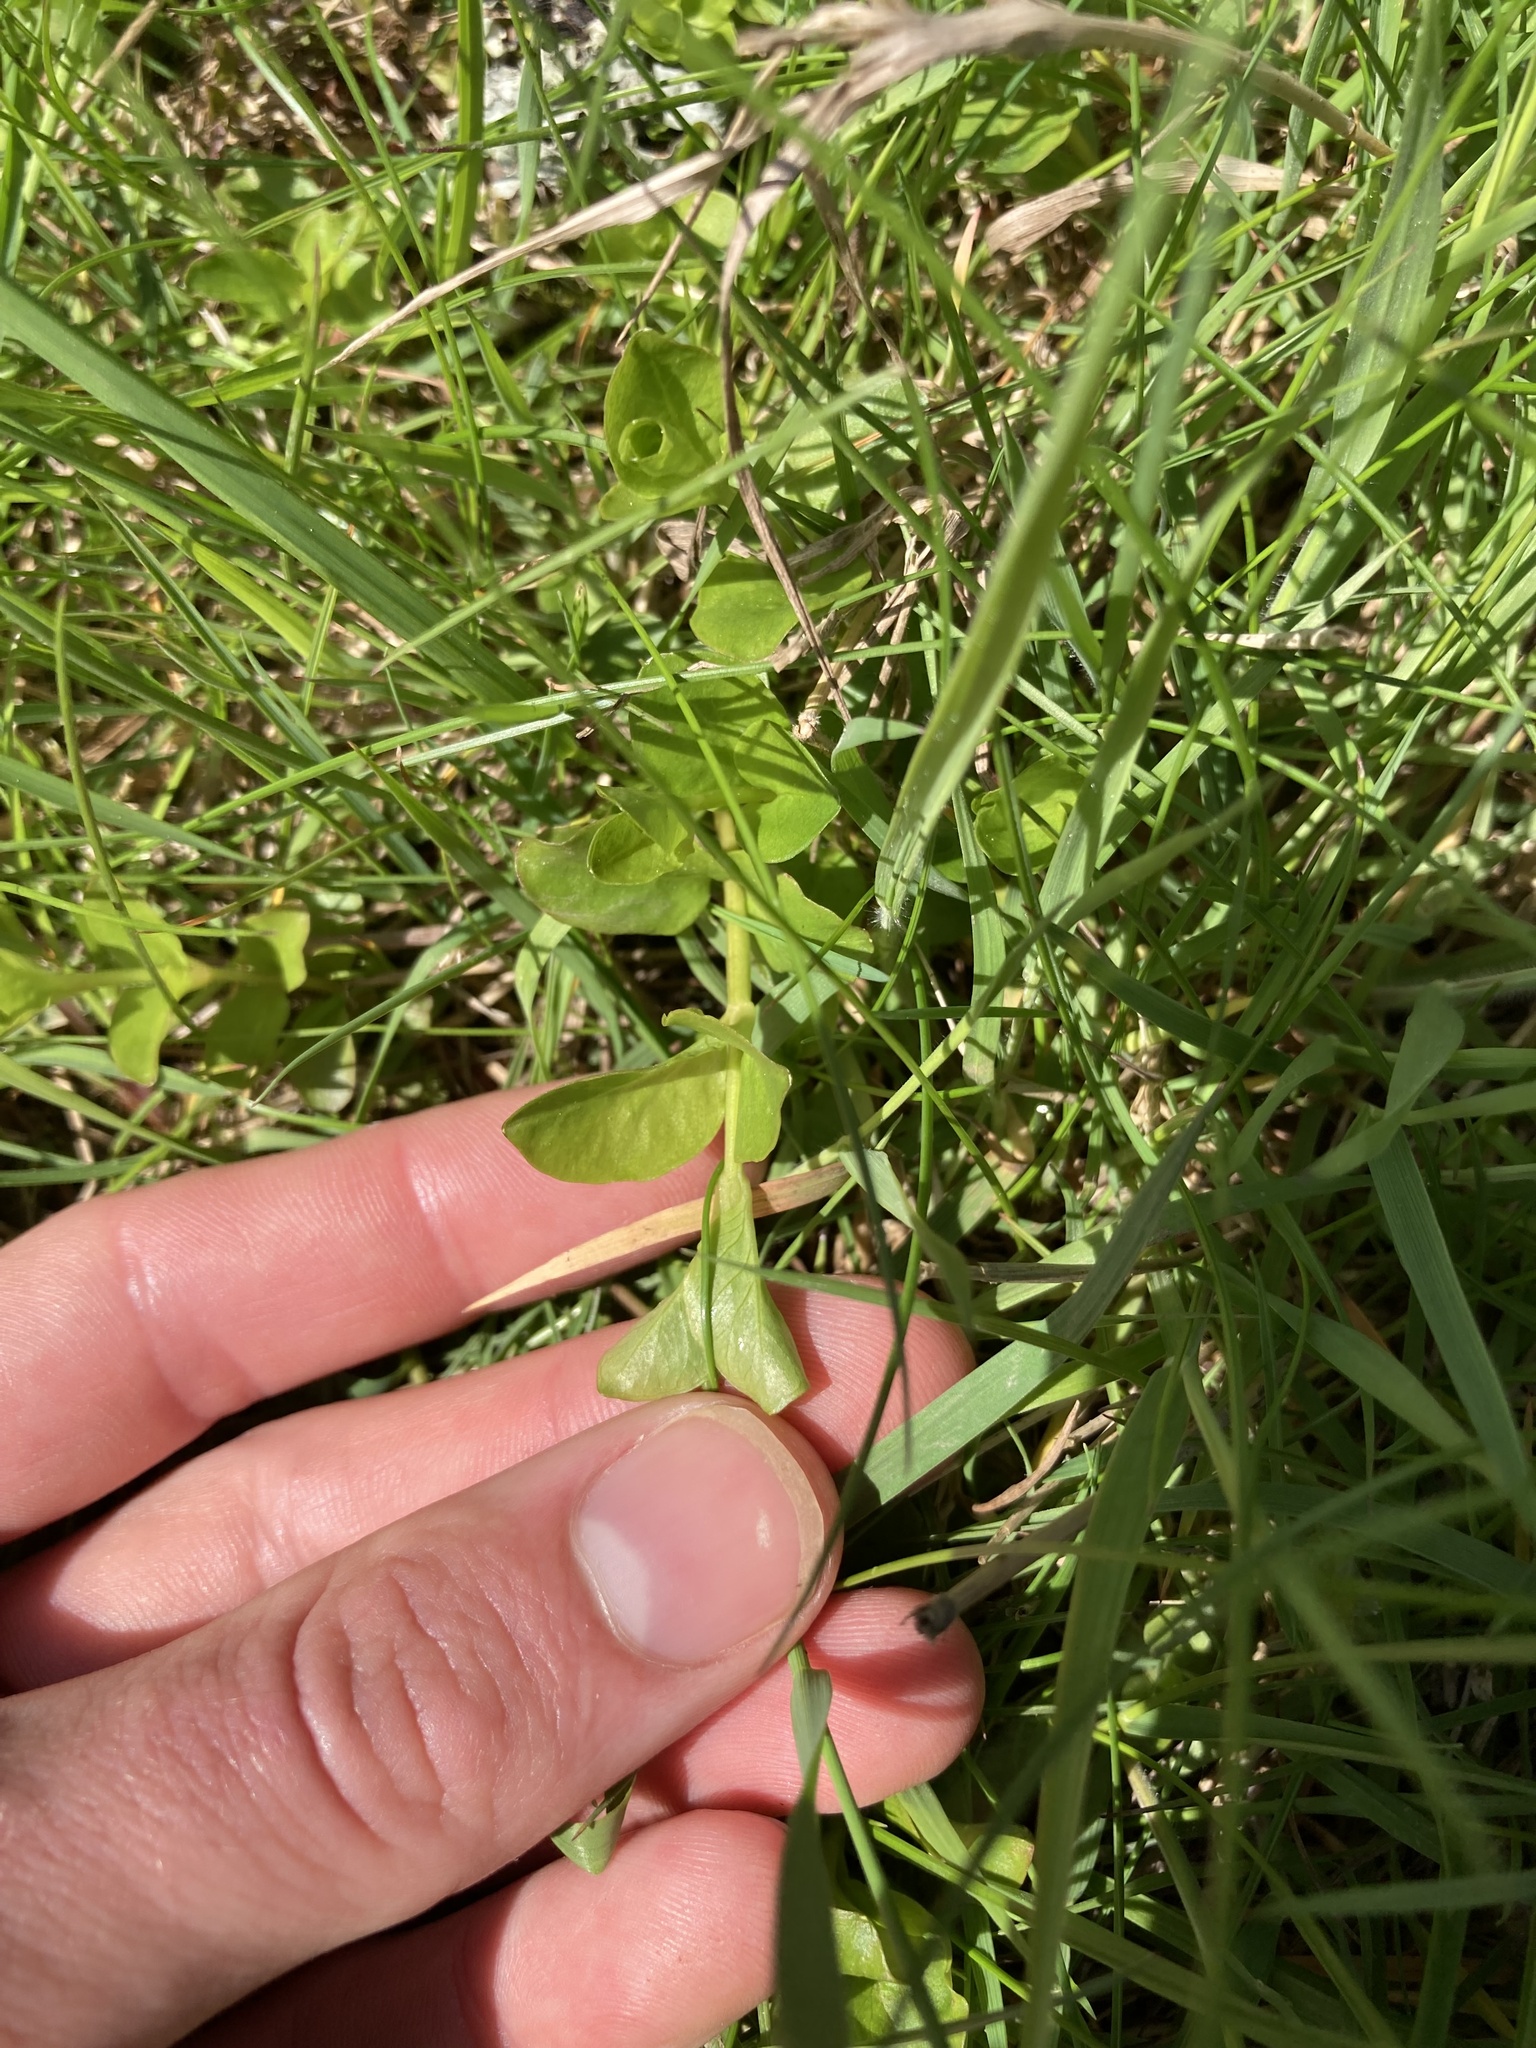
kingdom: Plantae
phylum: Tracheophyta
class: Magnoliopsida
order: Ericales
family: Primulaceae
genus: Lysimachia
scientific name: Lysimachia nummularia
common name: Moneywort
